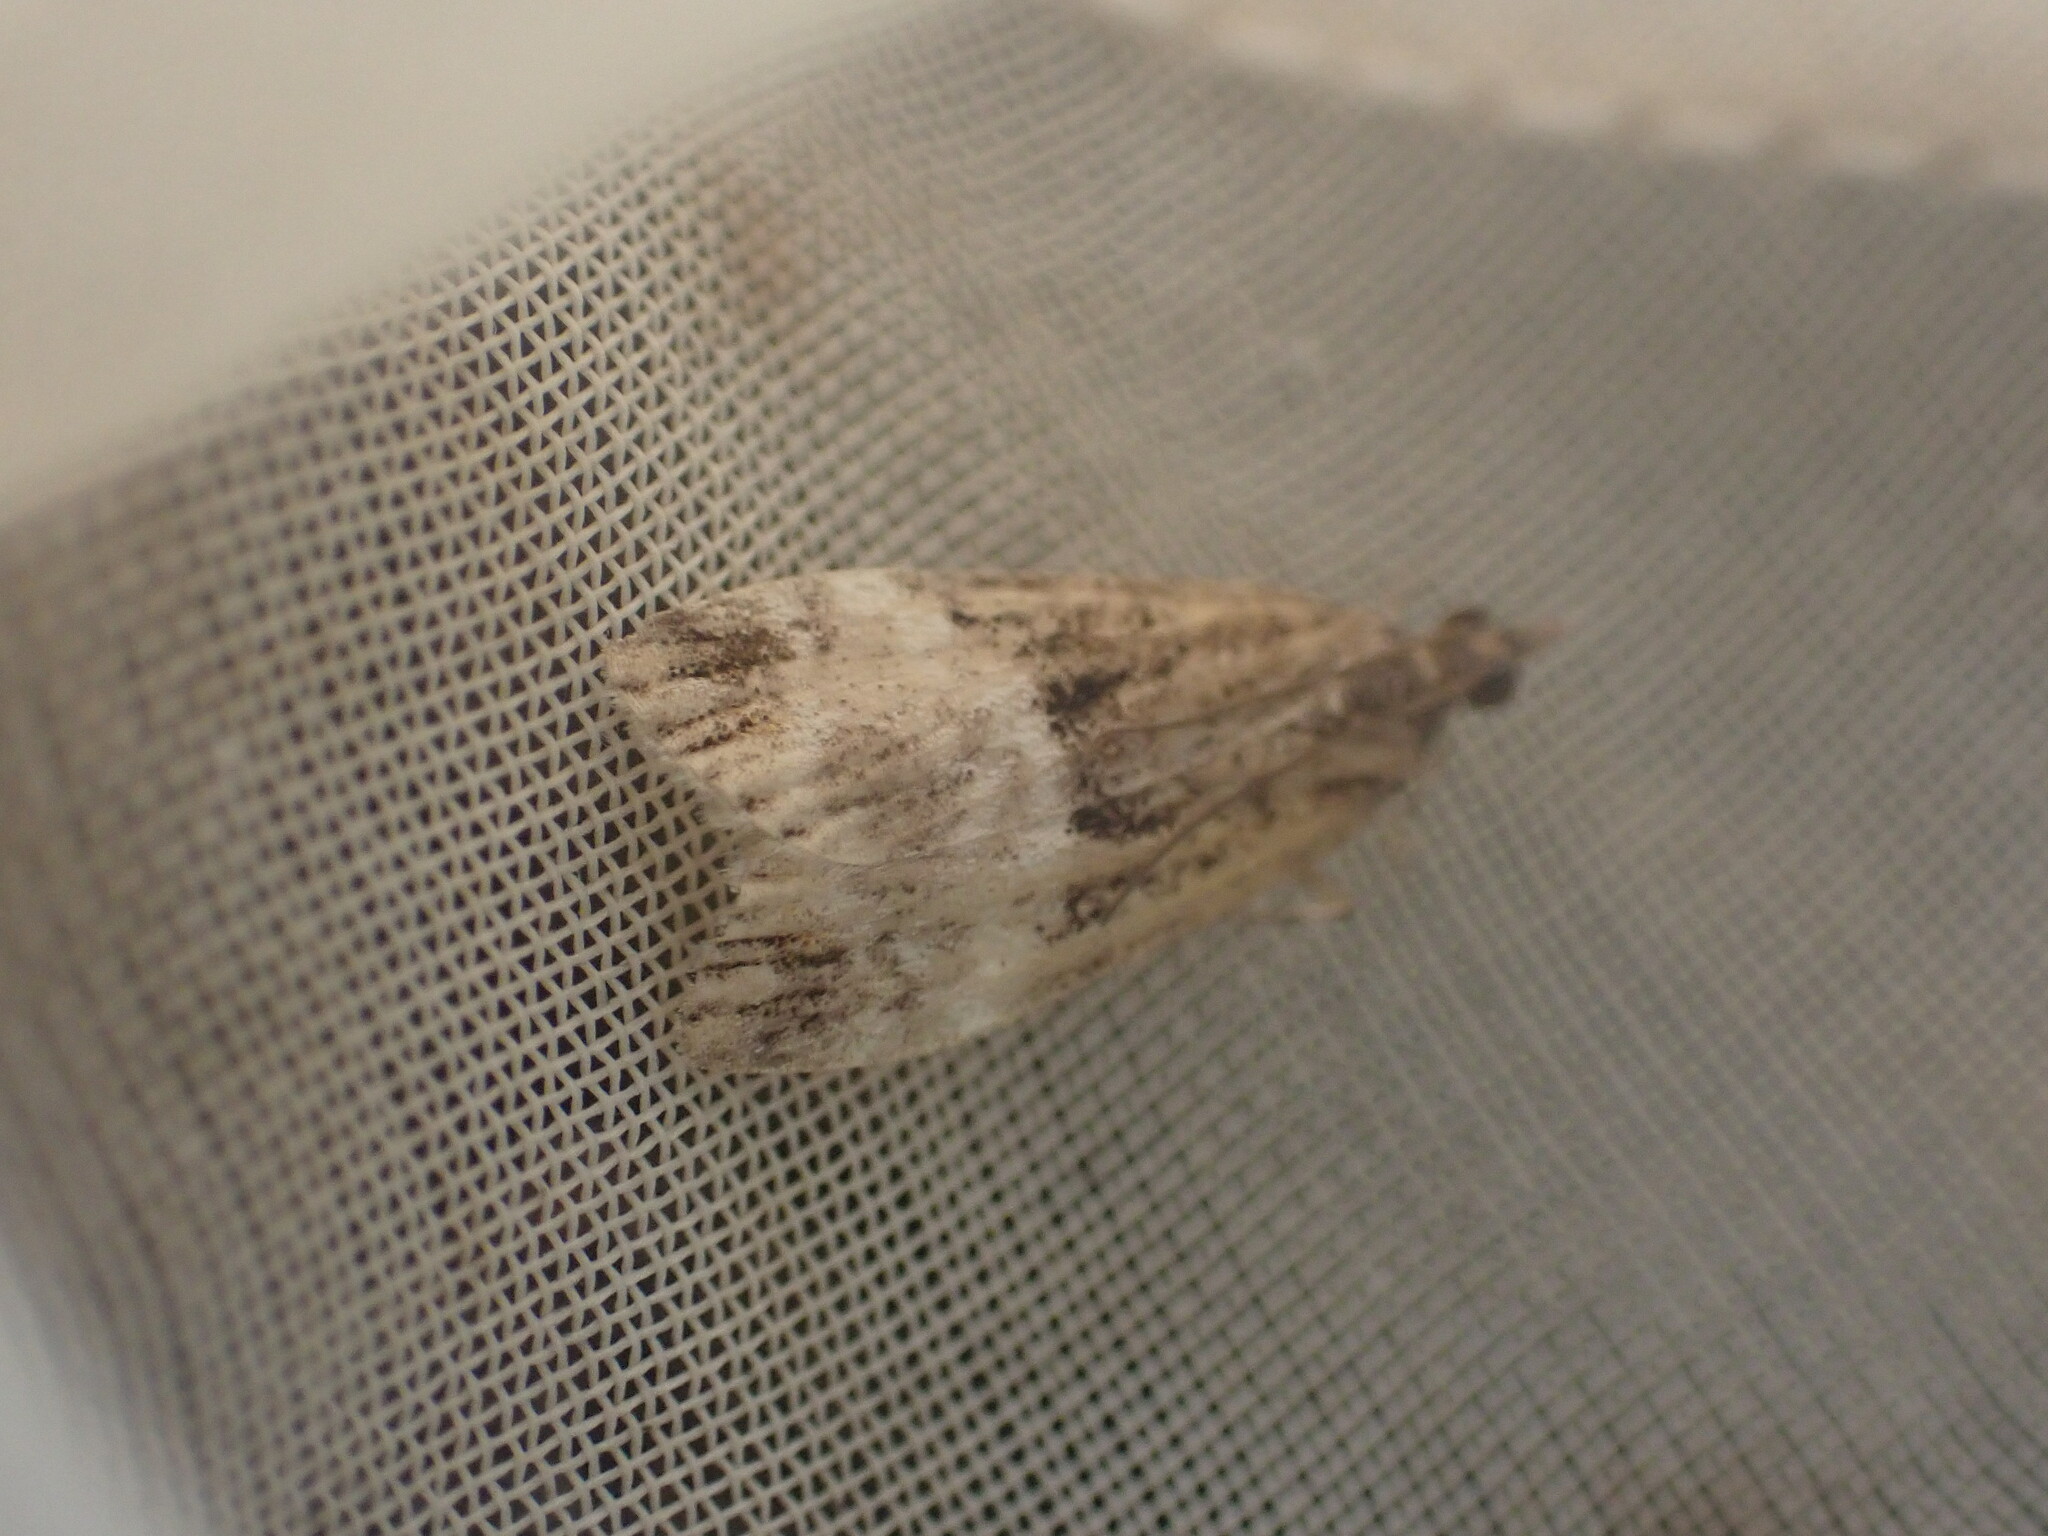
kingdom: Animalia
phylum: Arthropoda
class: Insecta
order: Lepidoptera
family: Crambidae
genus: Scoparia
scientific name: Scoparia minusculalis
